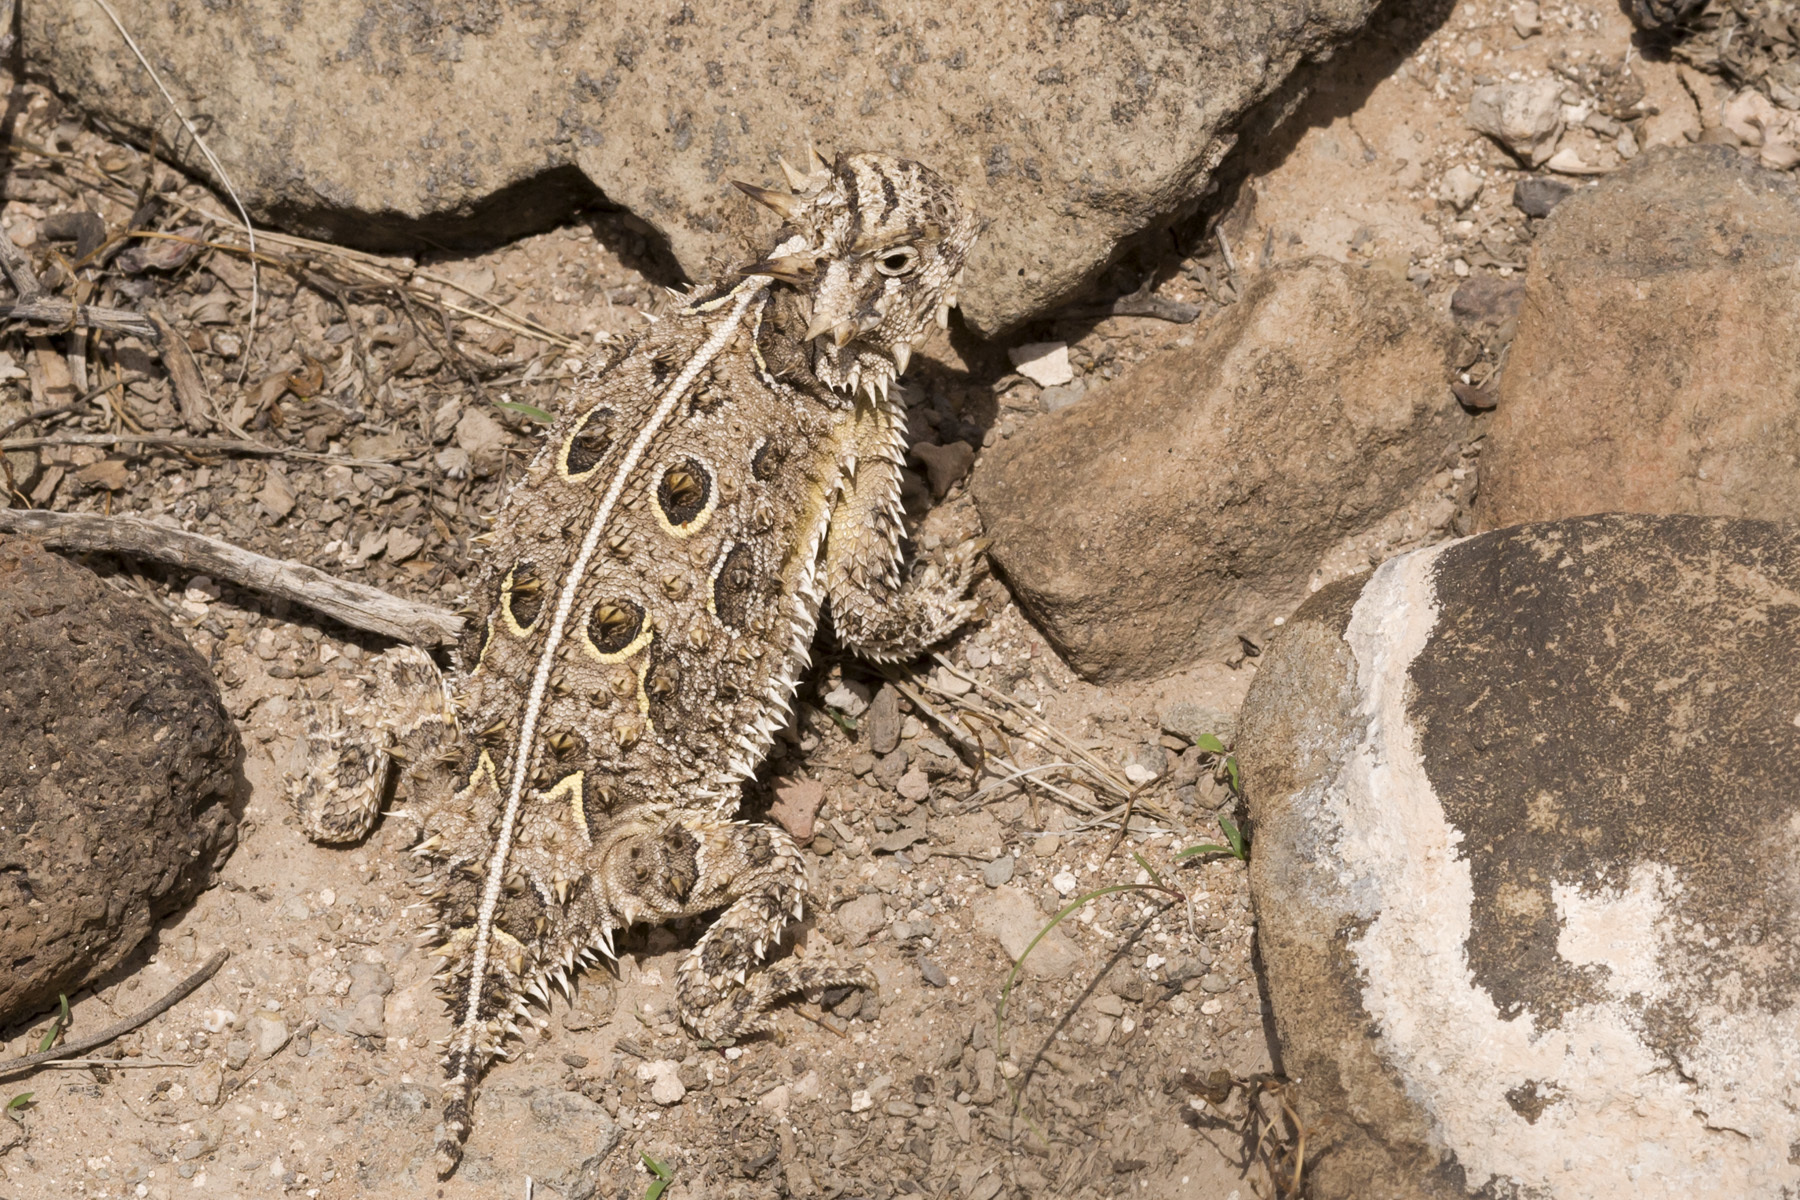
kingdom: Animalia
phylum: Chordata
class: Squamata
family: Phrynosomatidae
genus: Phrynosoma
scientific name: Phrynosoma cornutum
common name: Texas horned lizard
